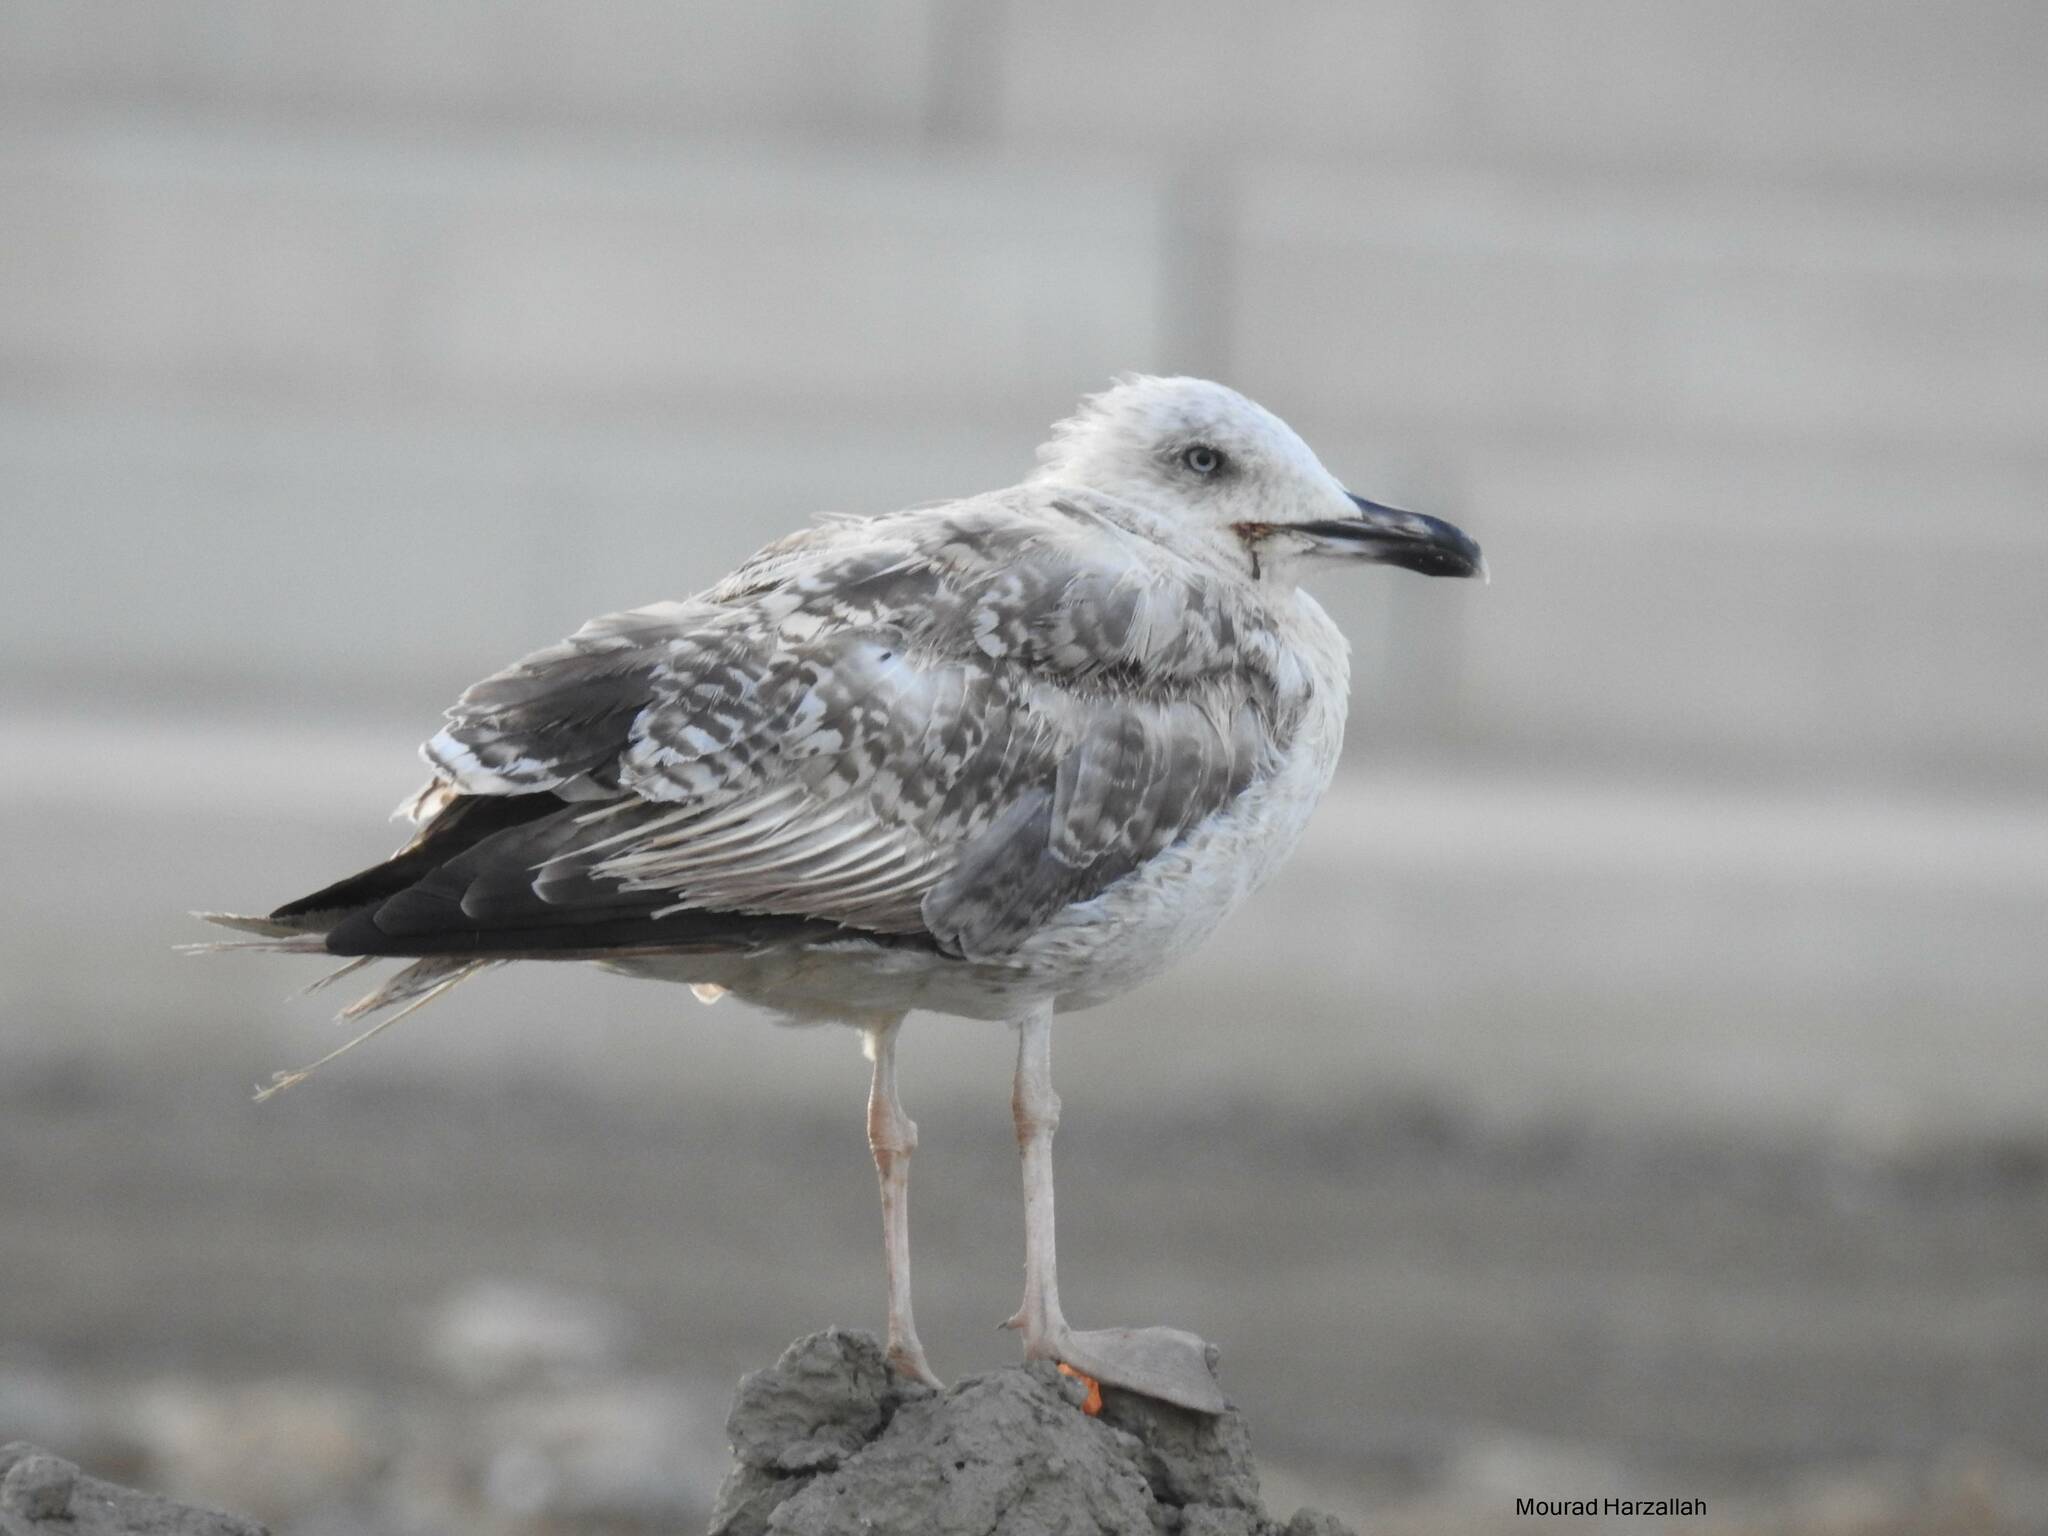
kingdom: Animalia
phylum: Chordata
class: Aves
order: Charadriiformes
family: Laridae
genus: Larus
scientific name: Larus fuscus
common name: Lesser black-backed gull
